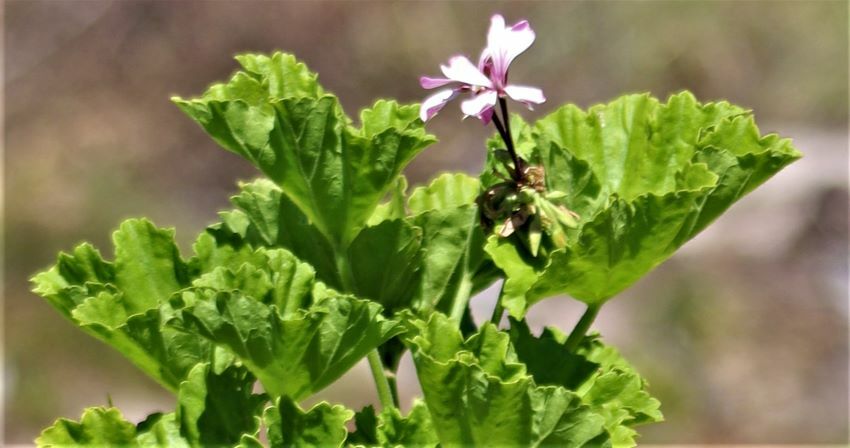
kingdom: Plantae
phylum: Tracheophyta
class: Magnoliopsida
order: Geraniales
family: Geraniaceae
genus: Pelargonium
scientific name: Pelargonium zonale
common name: Horseshoe geranium
